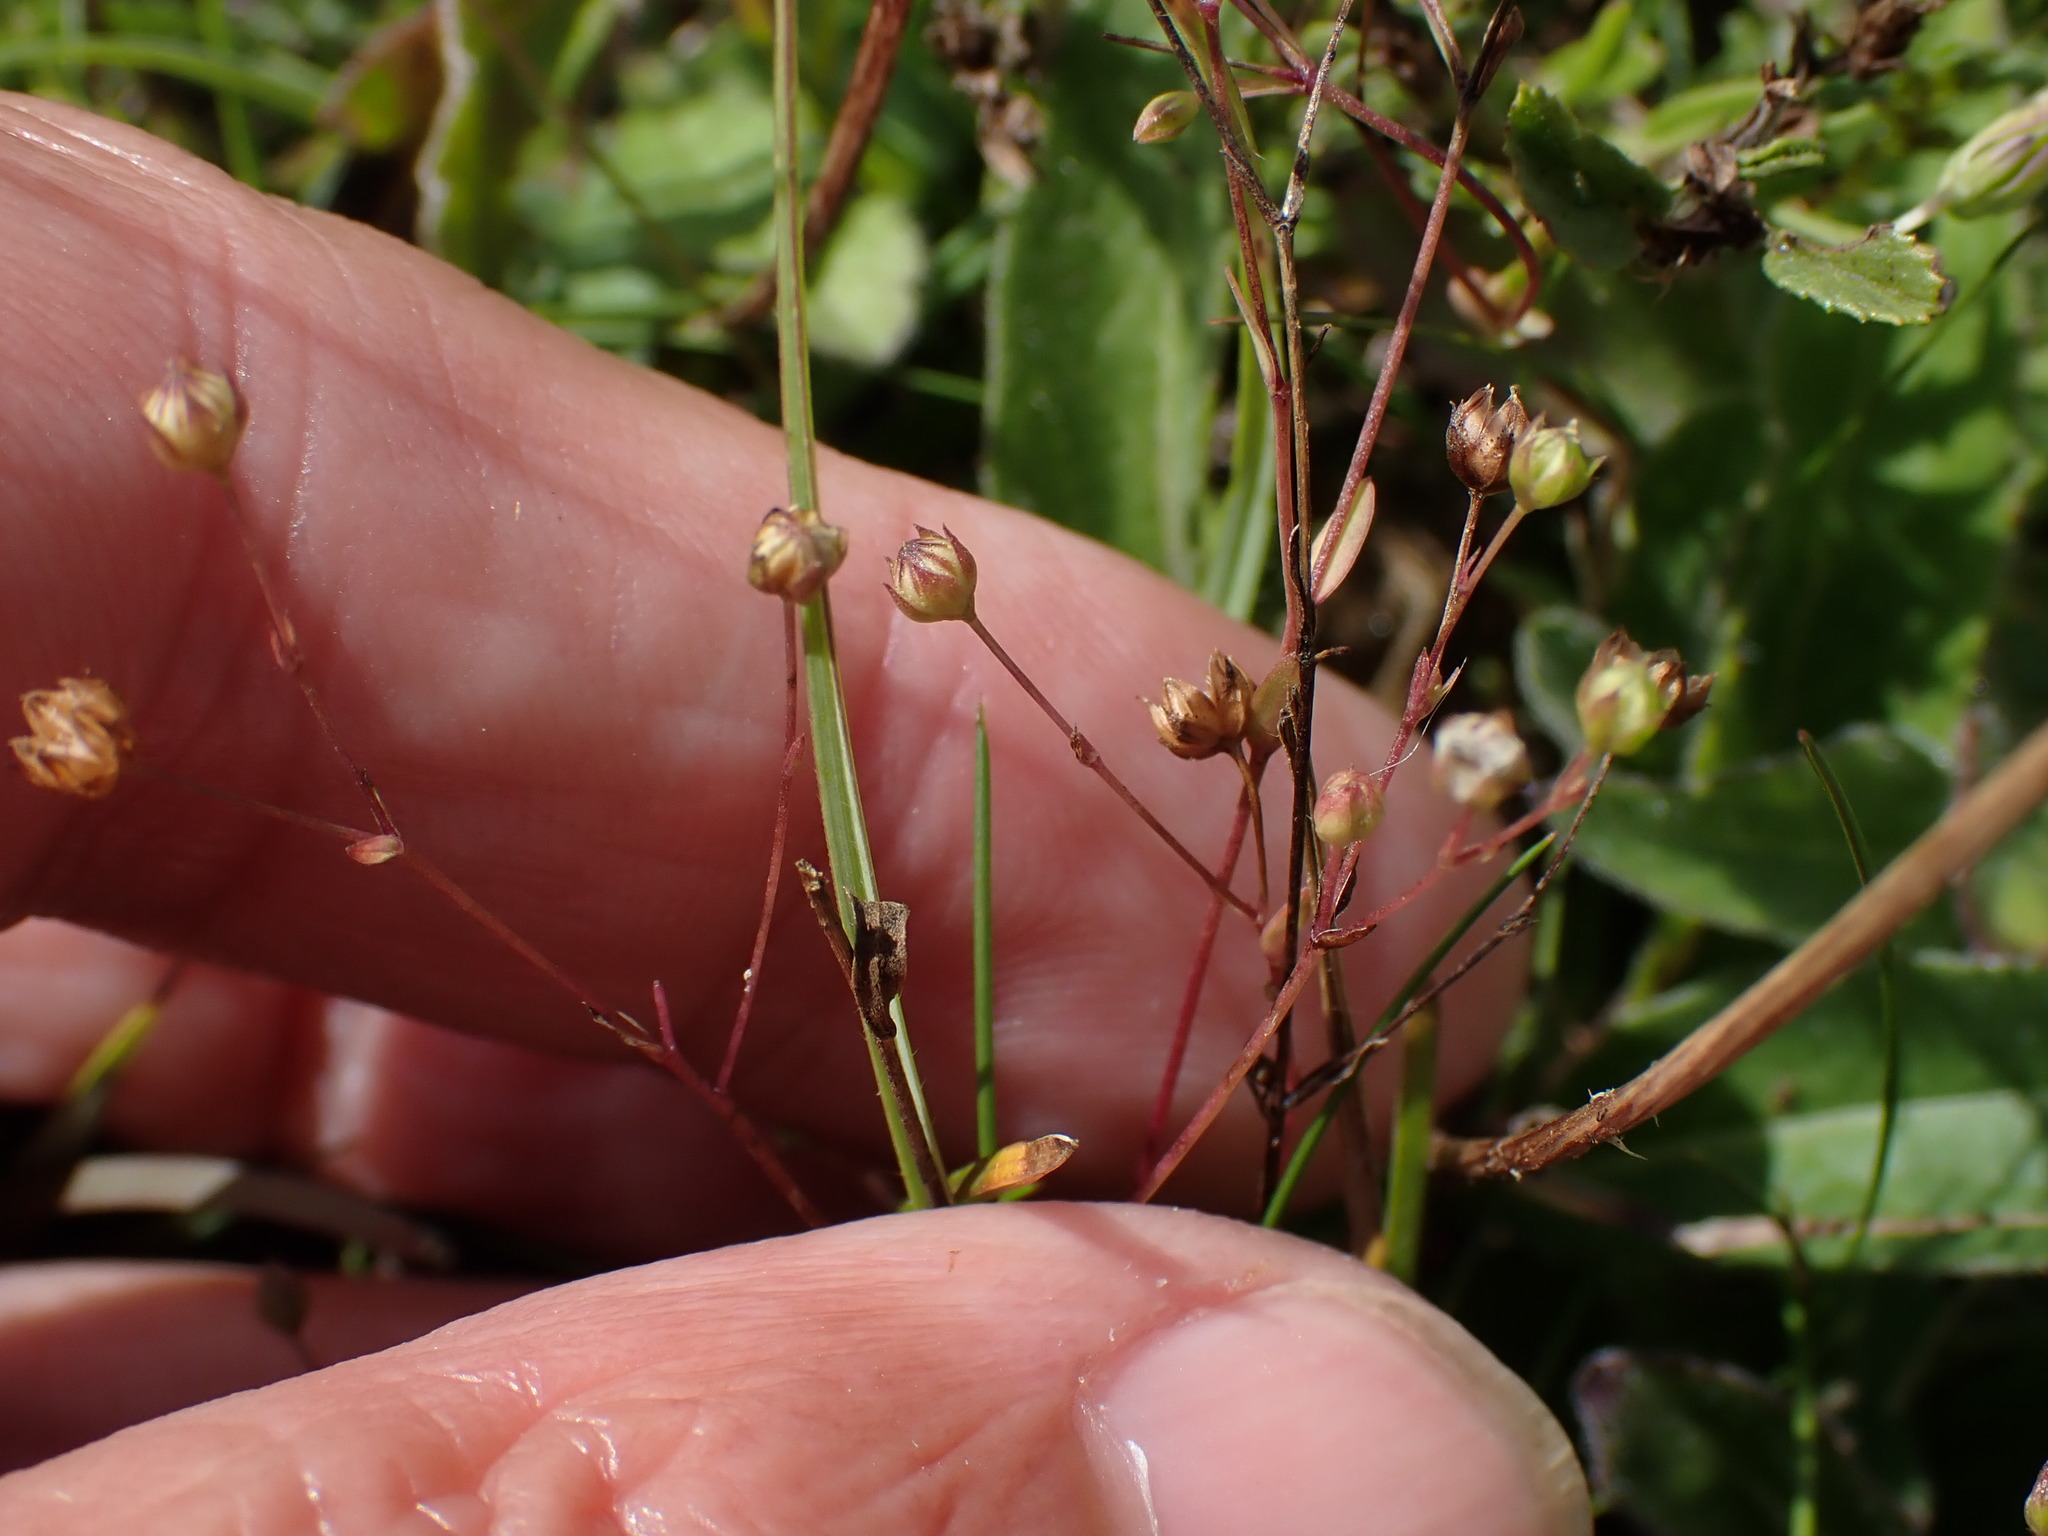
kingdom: Plantae
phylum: Tracheophyta
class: Magnoliopsida
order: Malpighiales
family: Linaceae
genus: Linum
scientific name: Linum catharticum
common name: Fairy flax
